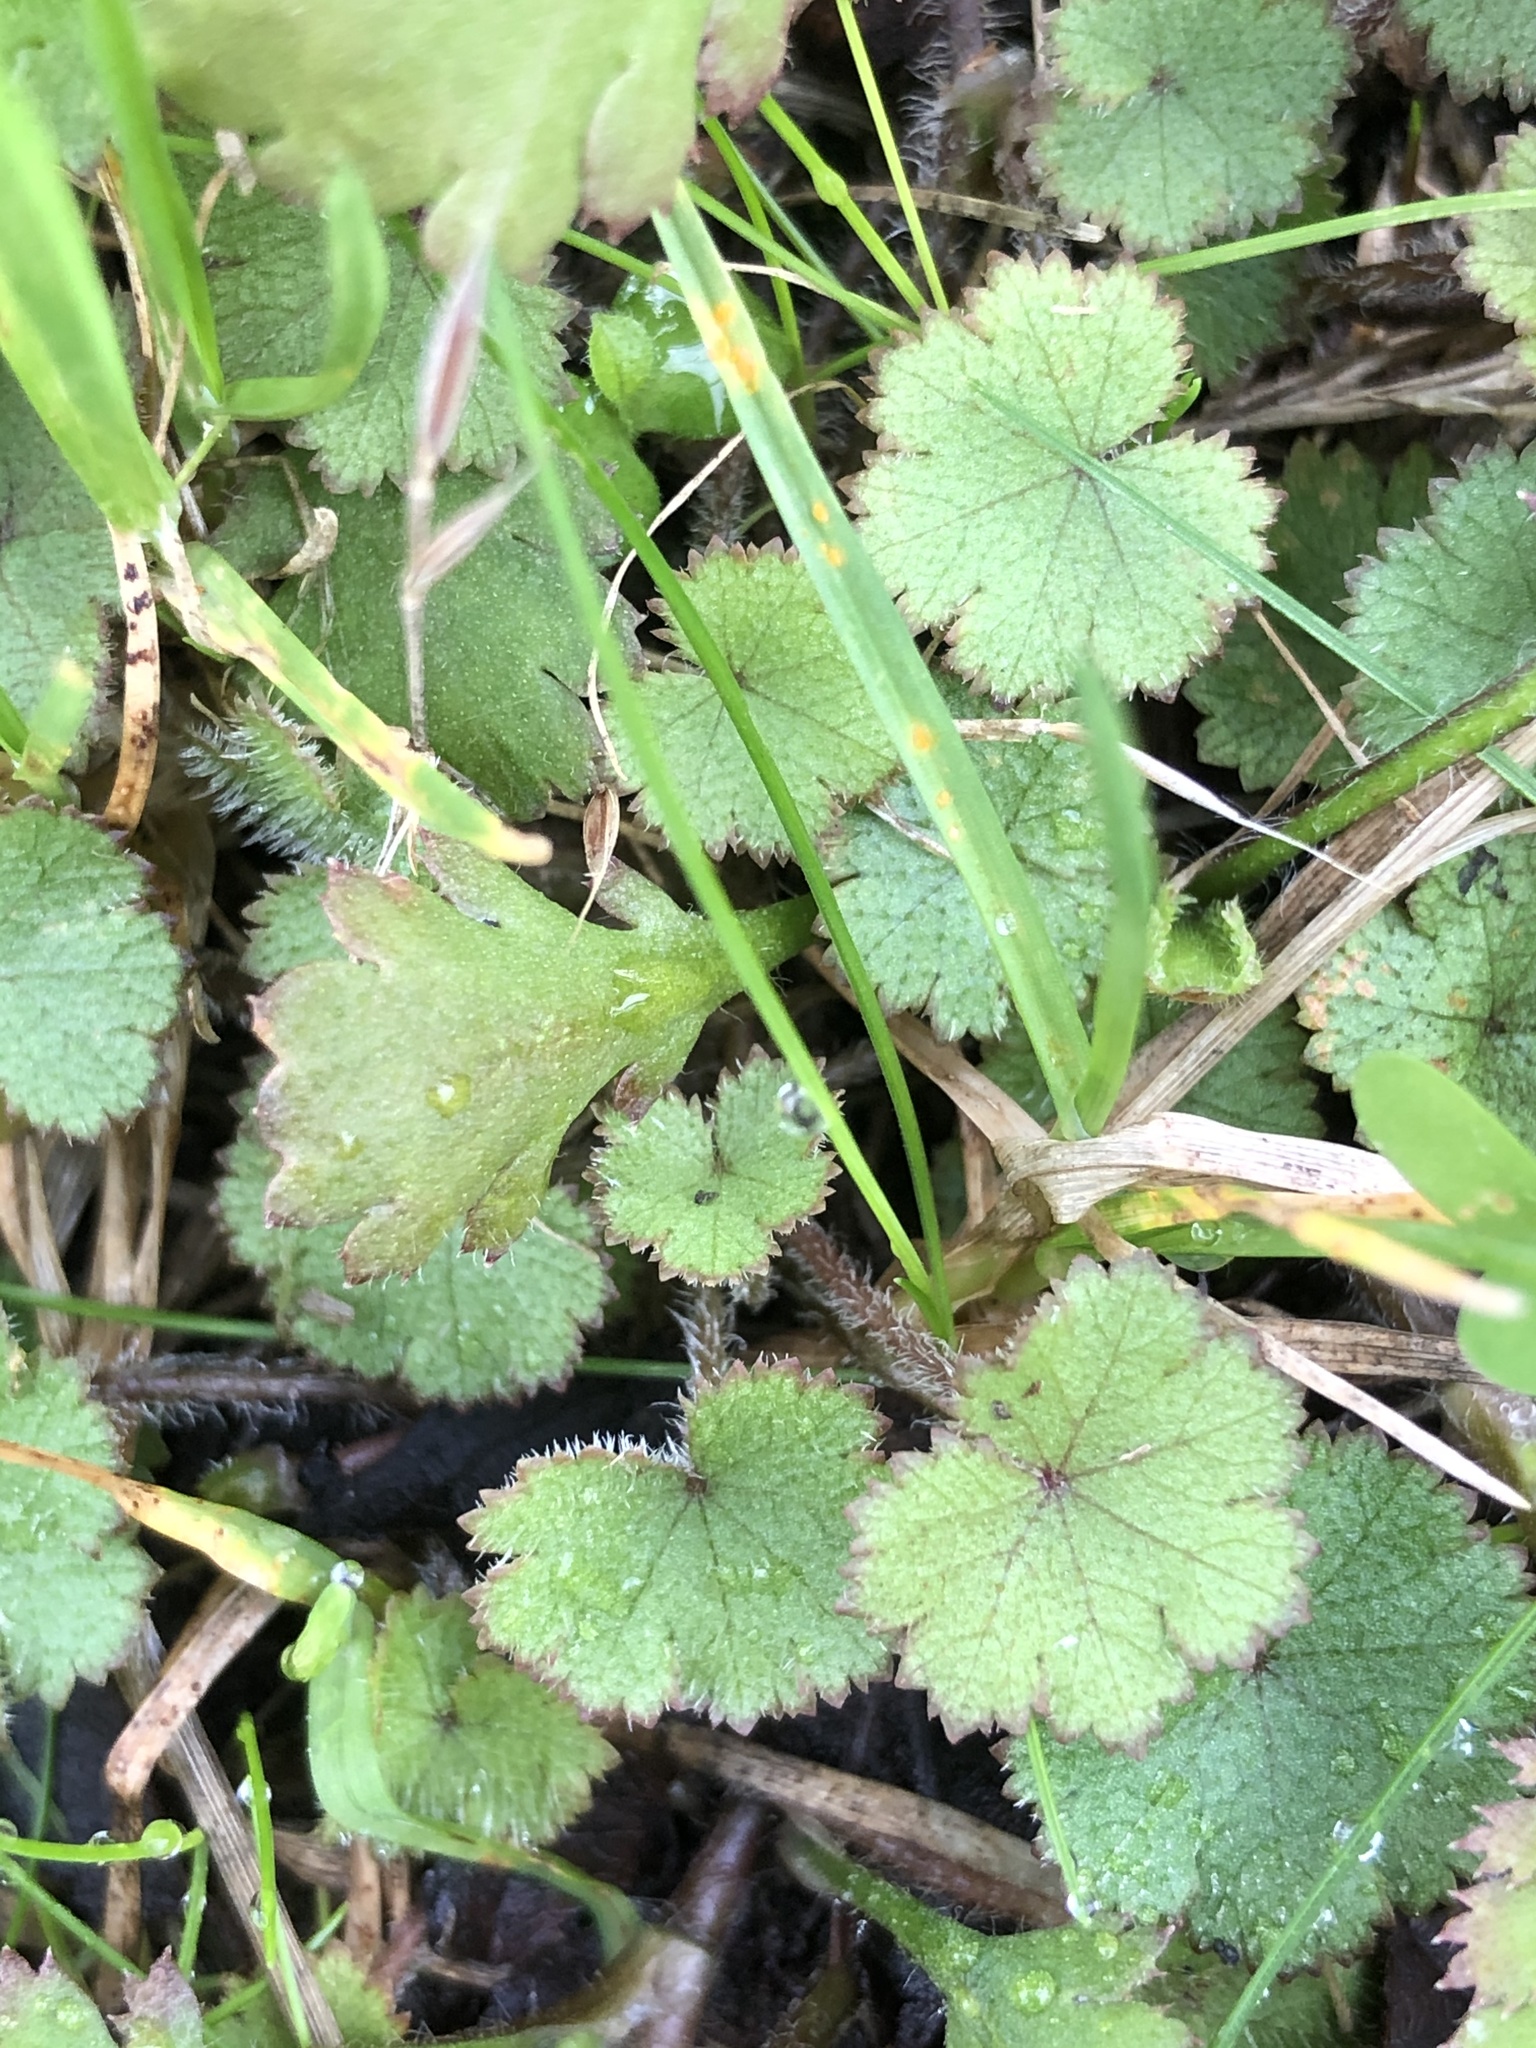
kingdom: Plantae
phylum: Tracheophyta
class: Magnoliopsida
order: Apiales
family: Araliaceae
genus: Hydrocotyle
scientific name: Hydrocotyle moschata
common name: Hairy pennywort
